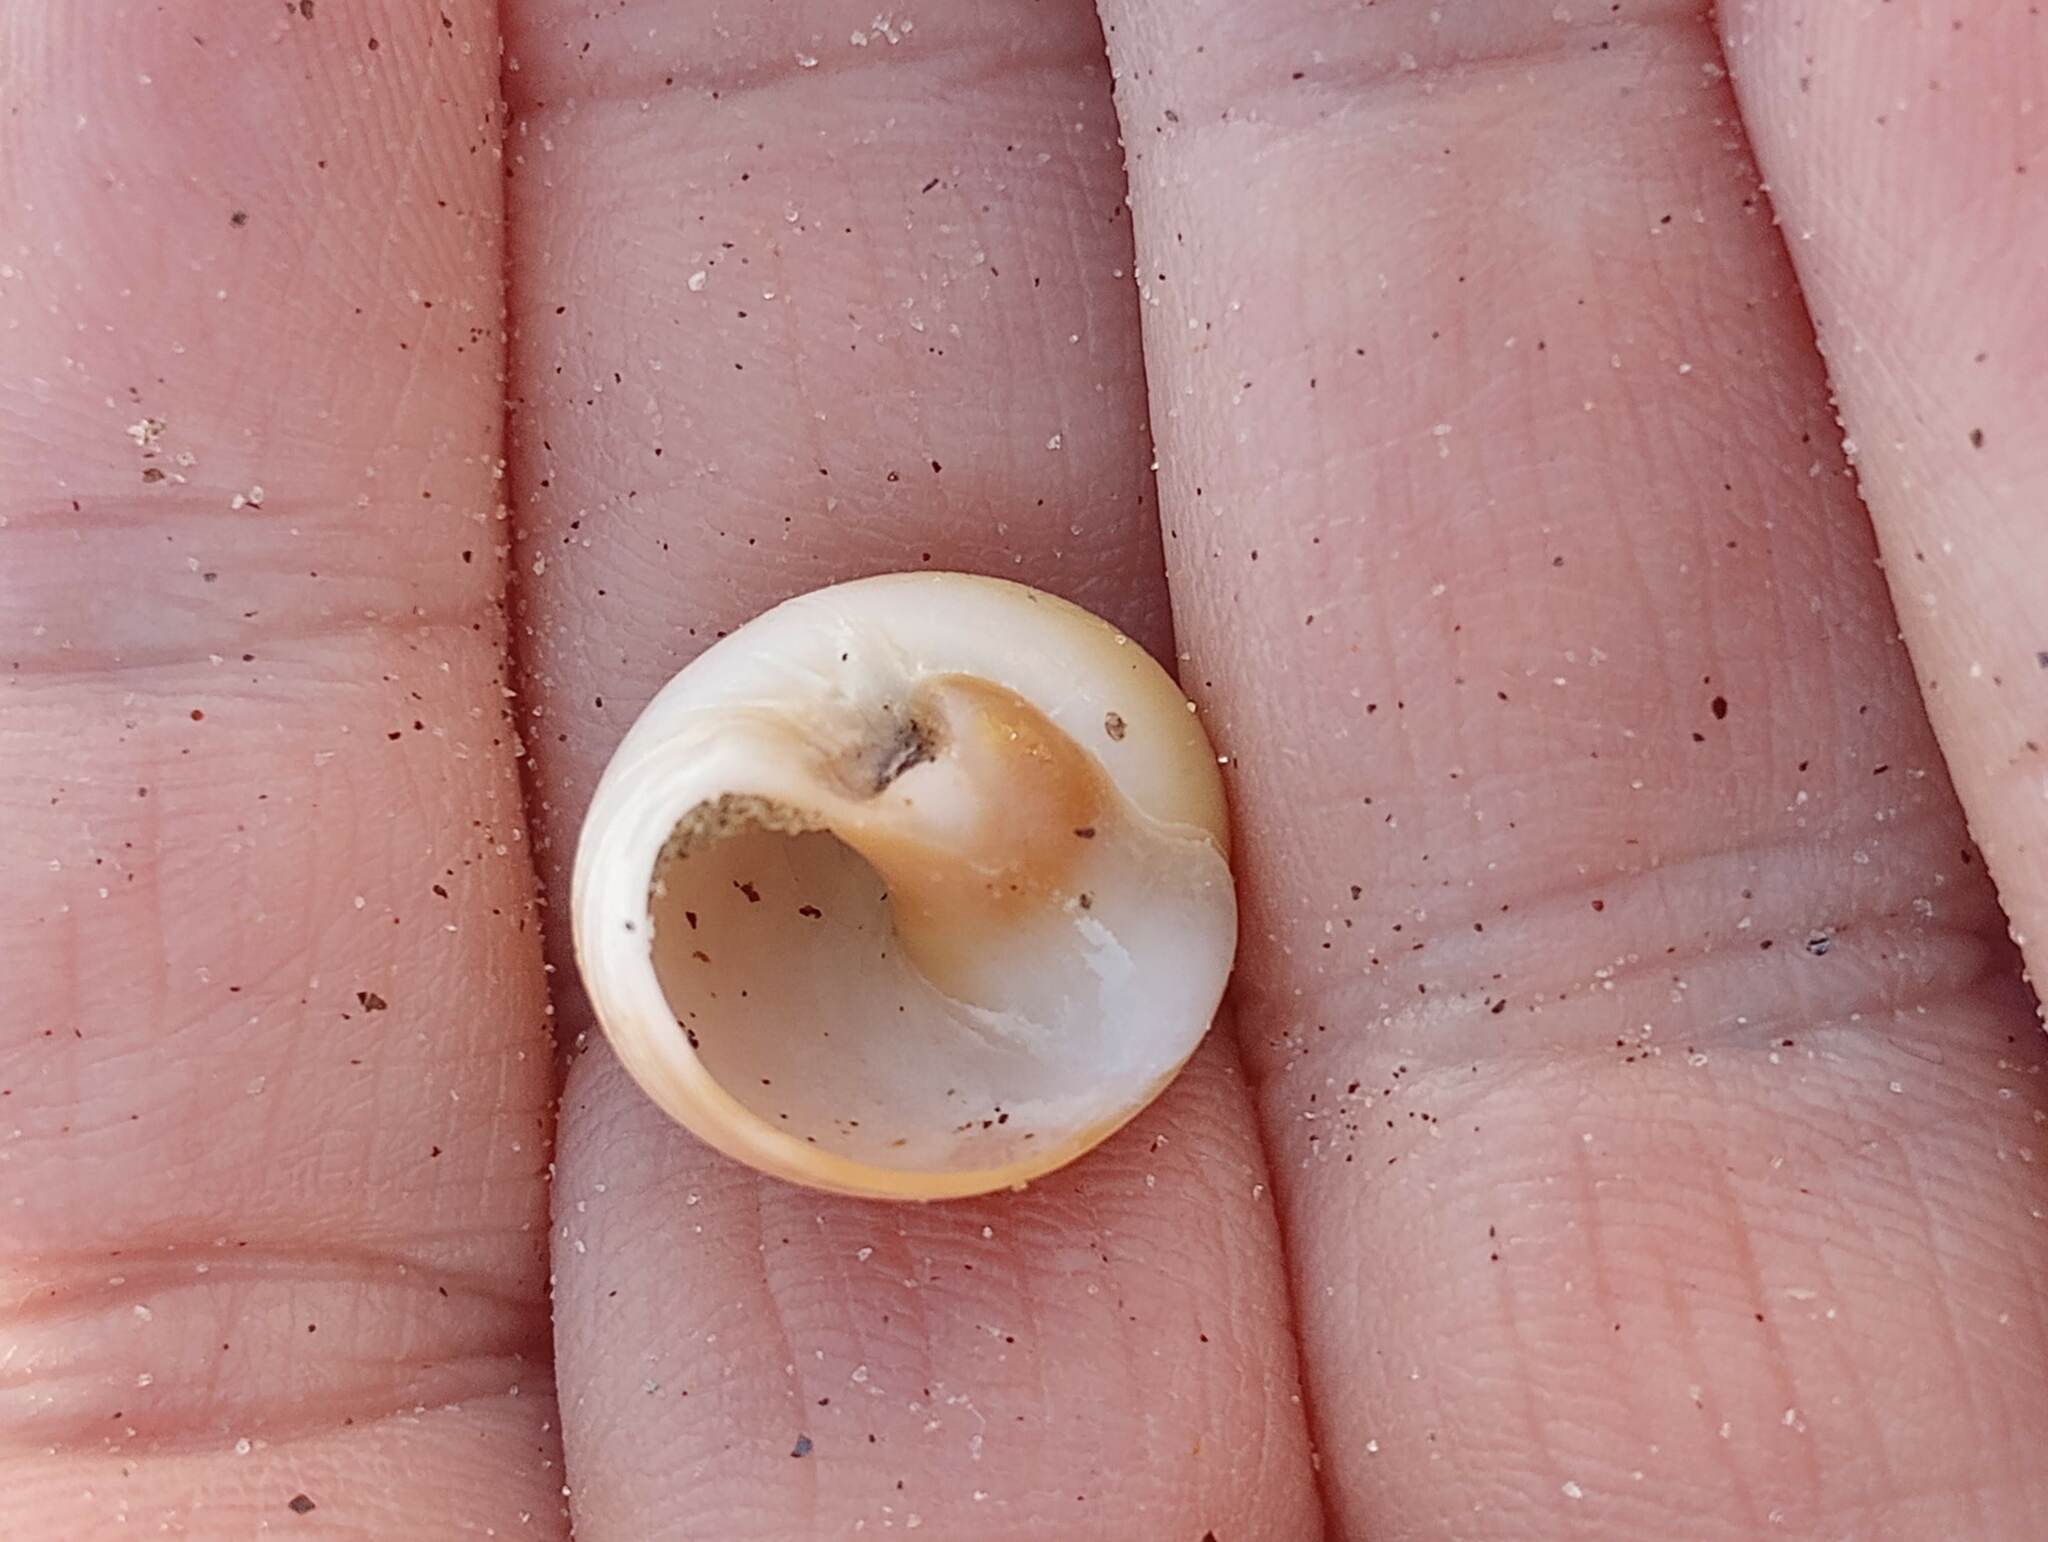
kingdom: Animalia
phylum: Mollusca
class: Gastropoda
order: Littorinimorpha
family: Naticidae
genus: Glossaulax
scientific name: Glossaulax reclusiana
